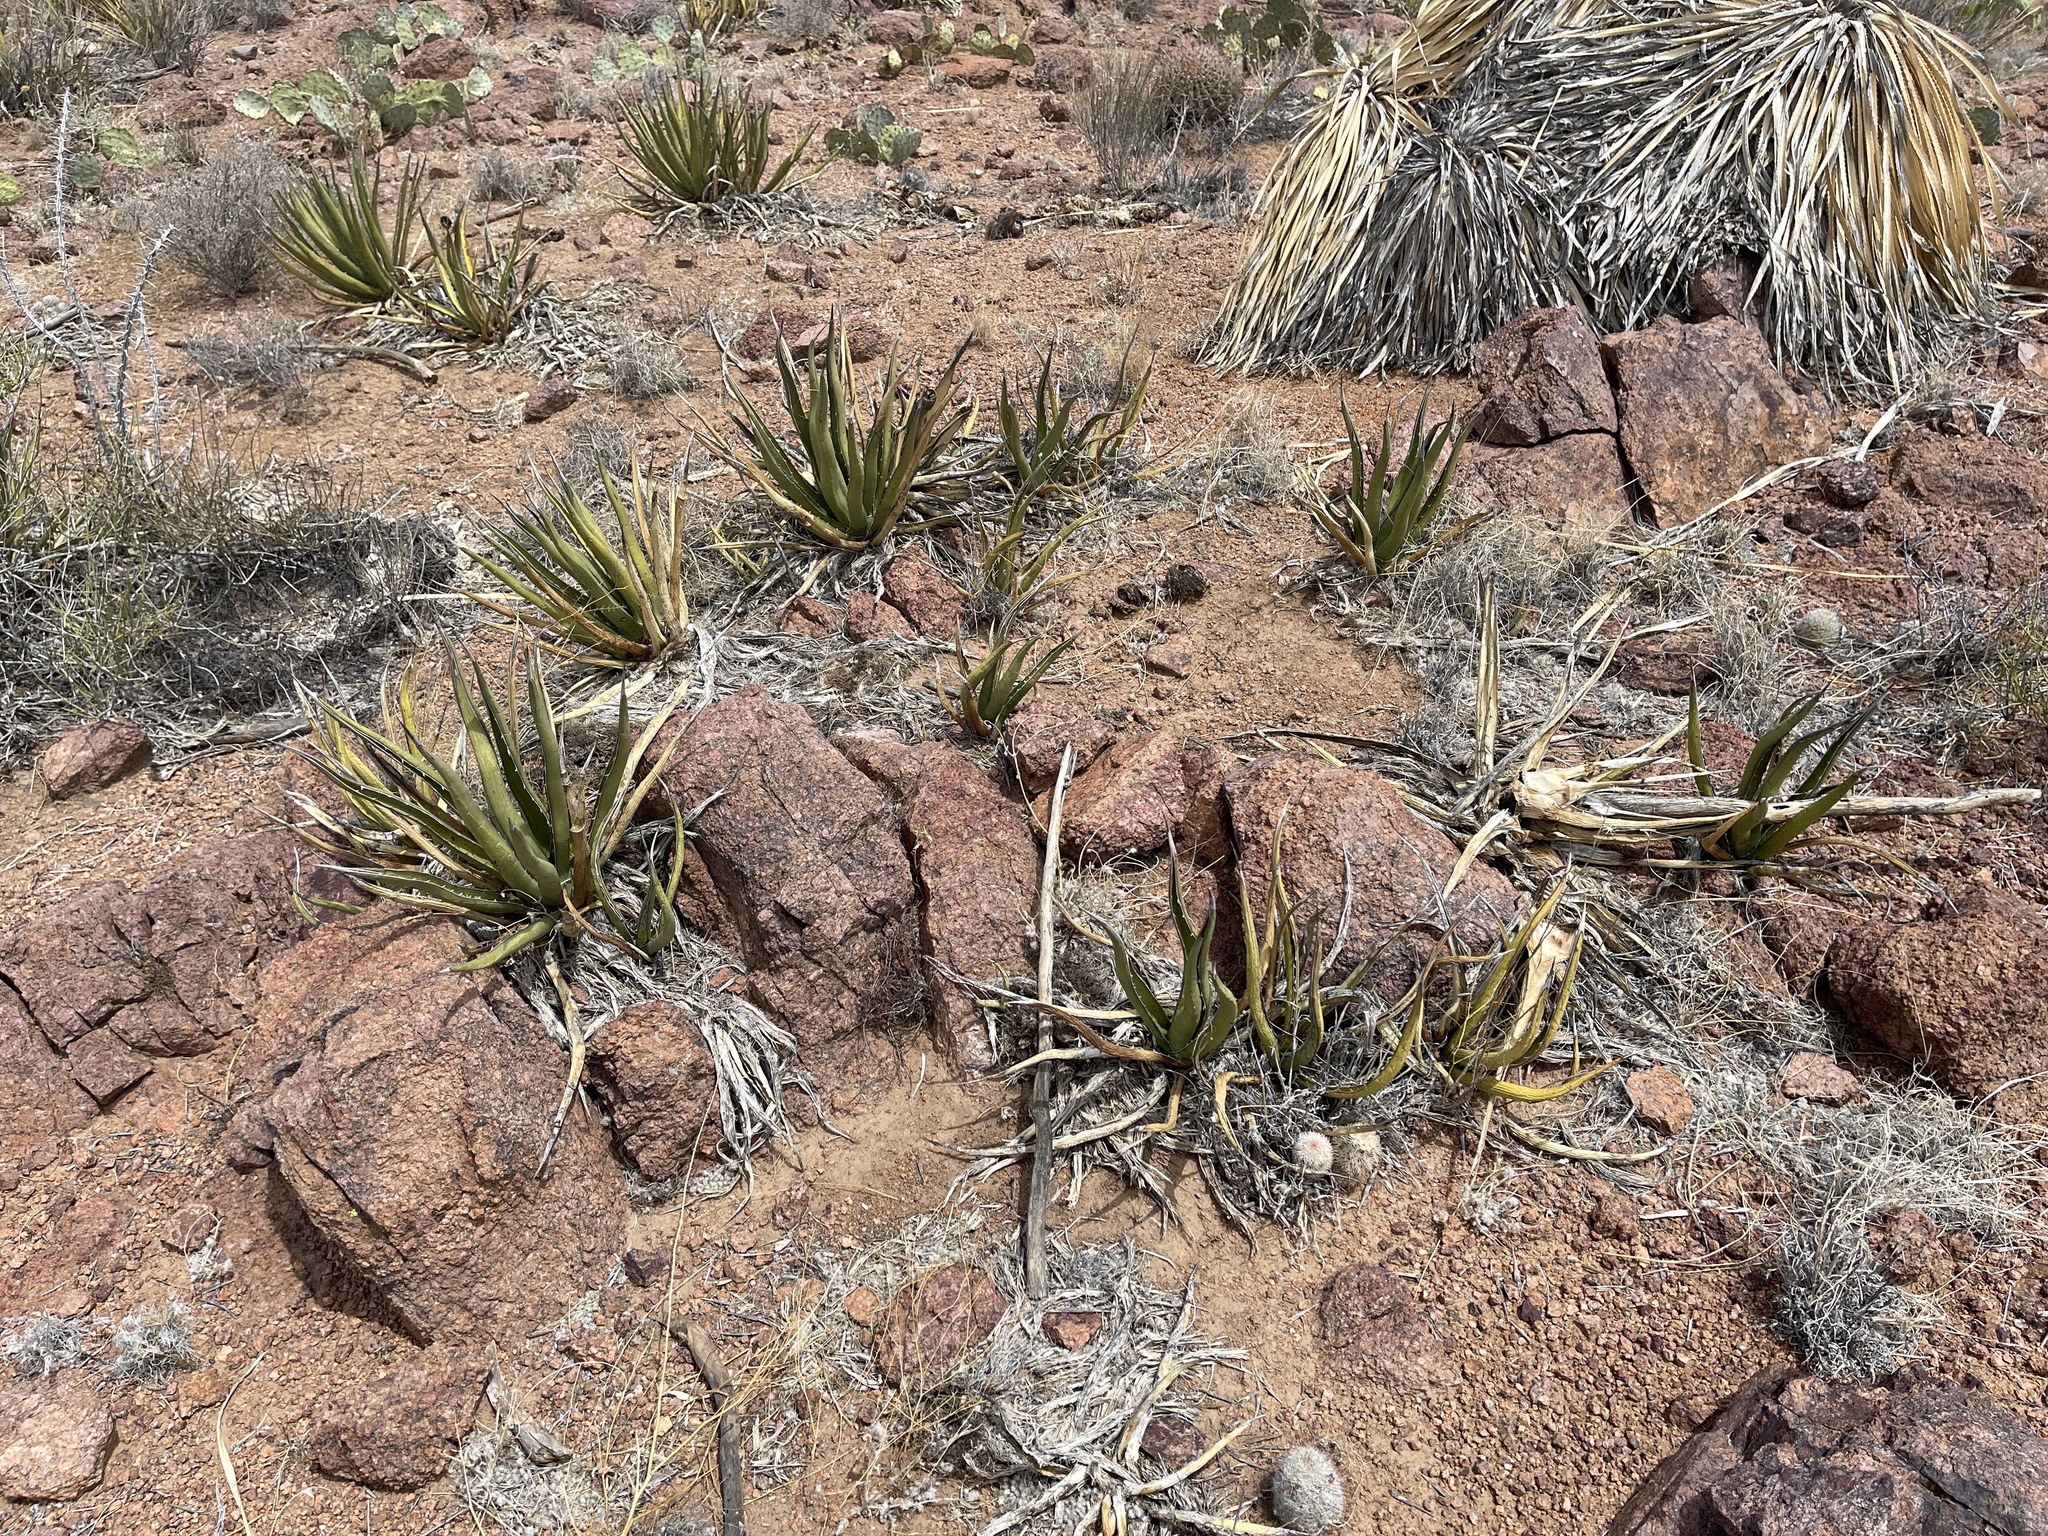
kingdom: Plantae
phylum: Tracheophyta
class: Liliopsida
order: Asparagales
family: Asparagaceae
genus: Agave
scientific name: Agave lechuguilla
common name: Lecheguilla agave
